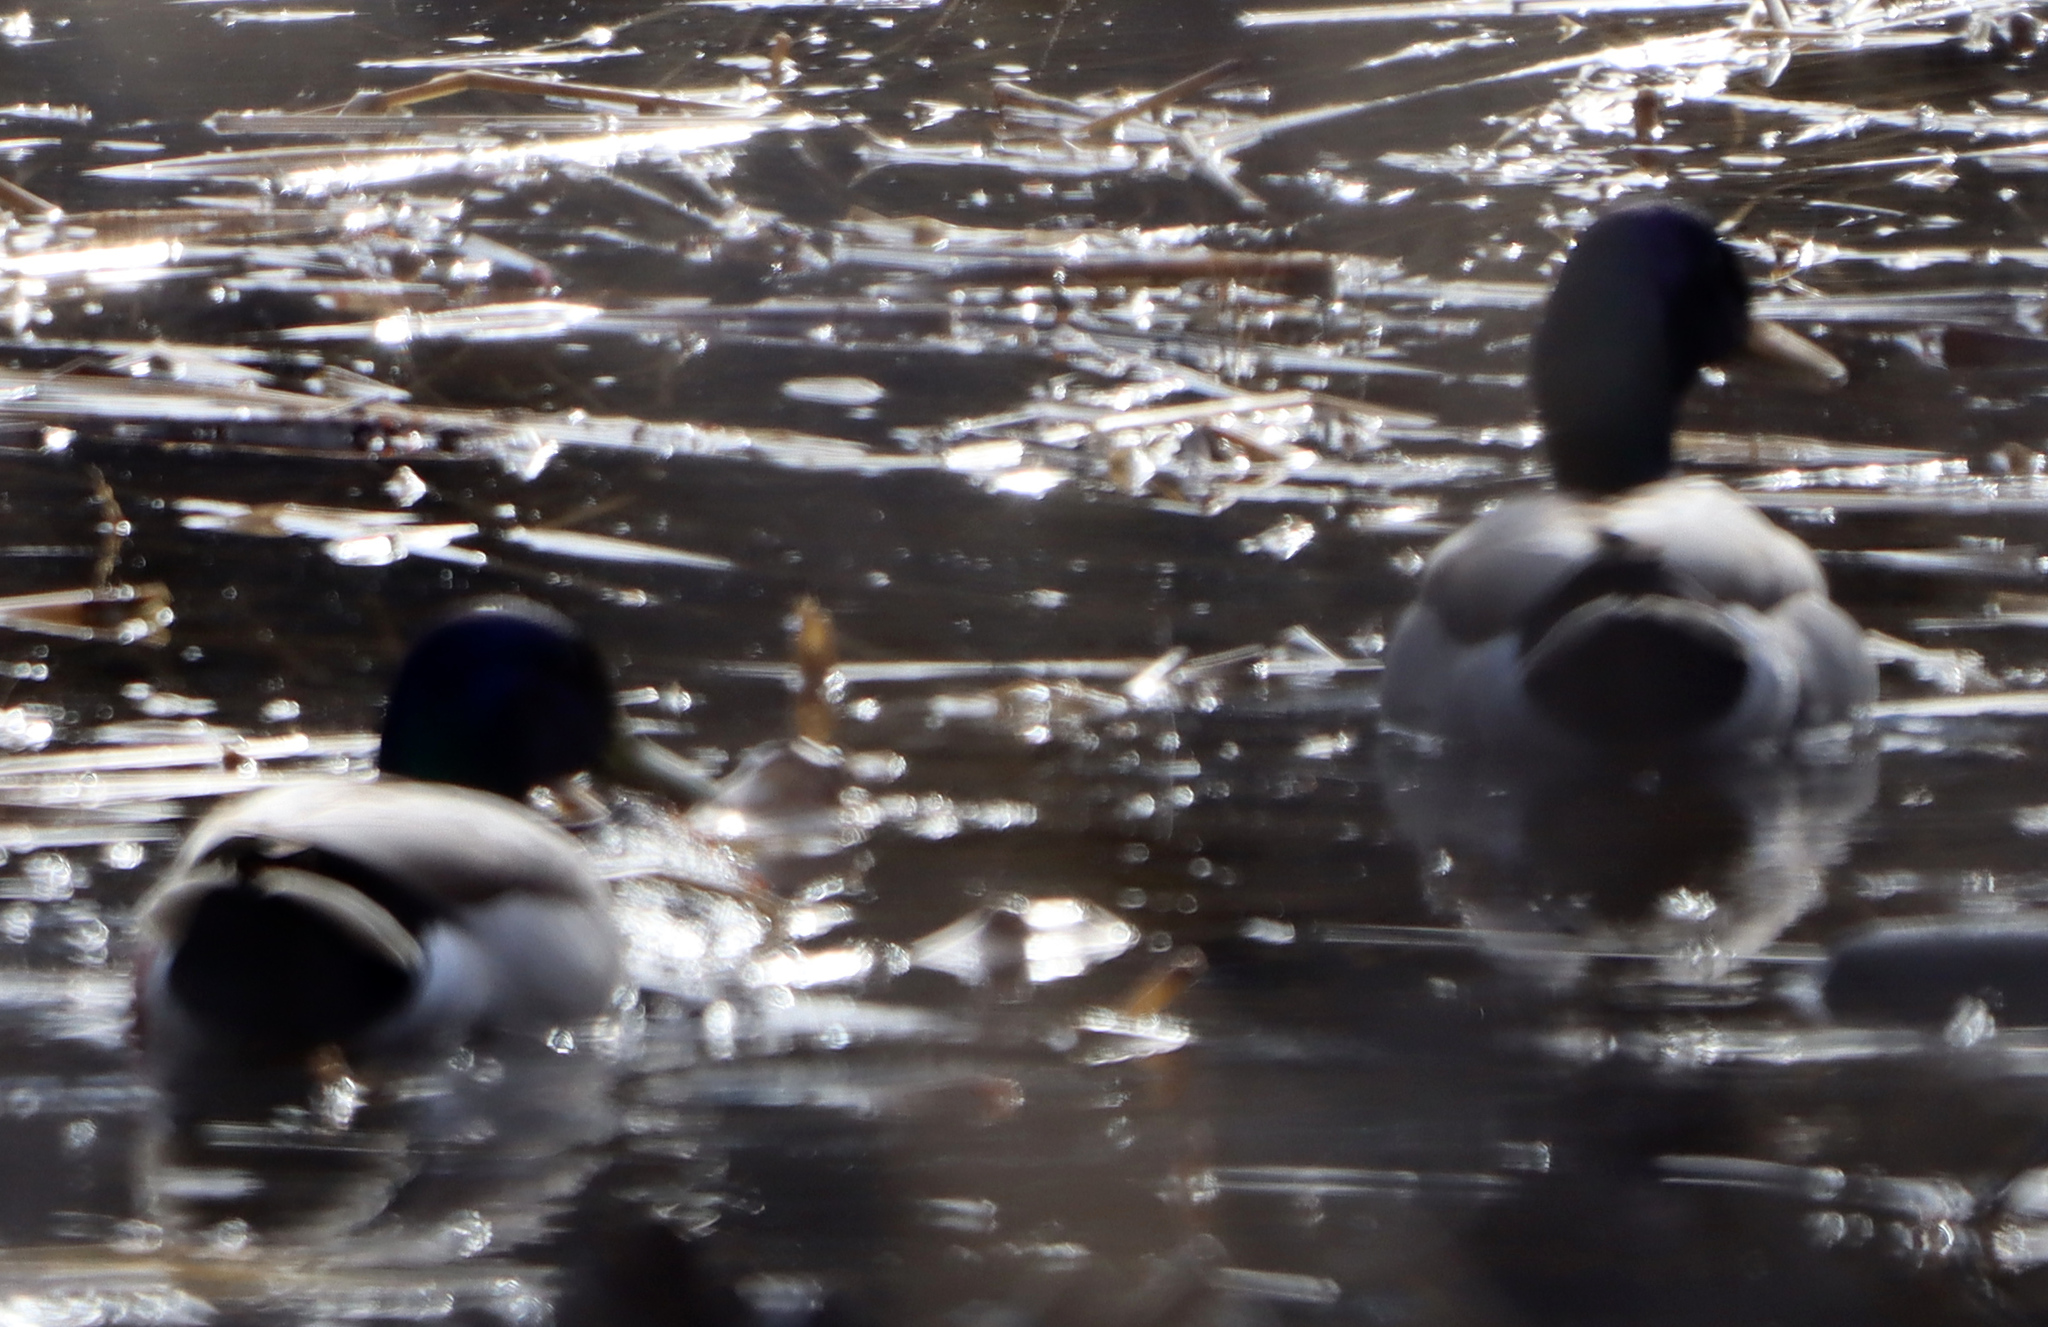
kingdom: Animalia
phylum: Chordata
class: Aves
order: Anseriformes
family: Anatidae
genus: Anas
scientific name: Anas platyrhynchos
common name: Mallard
